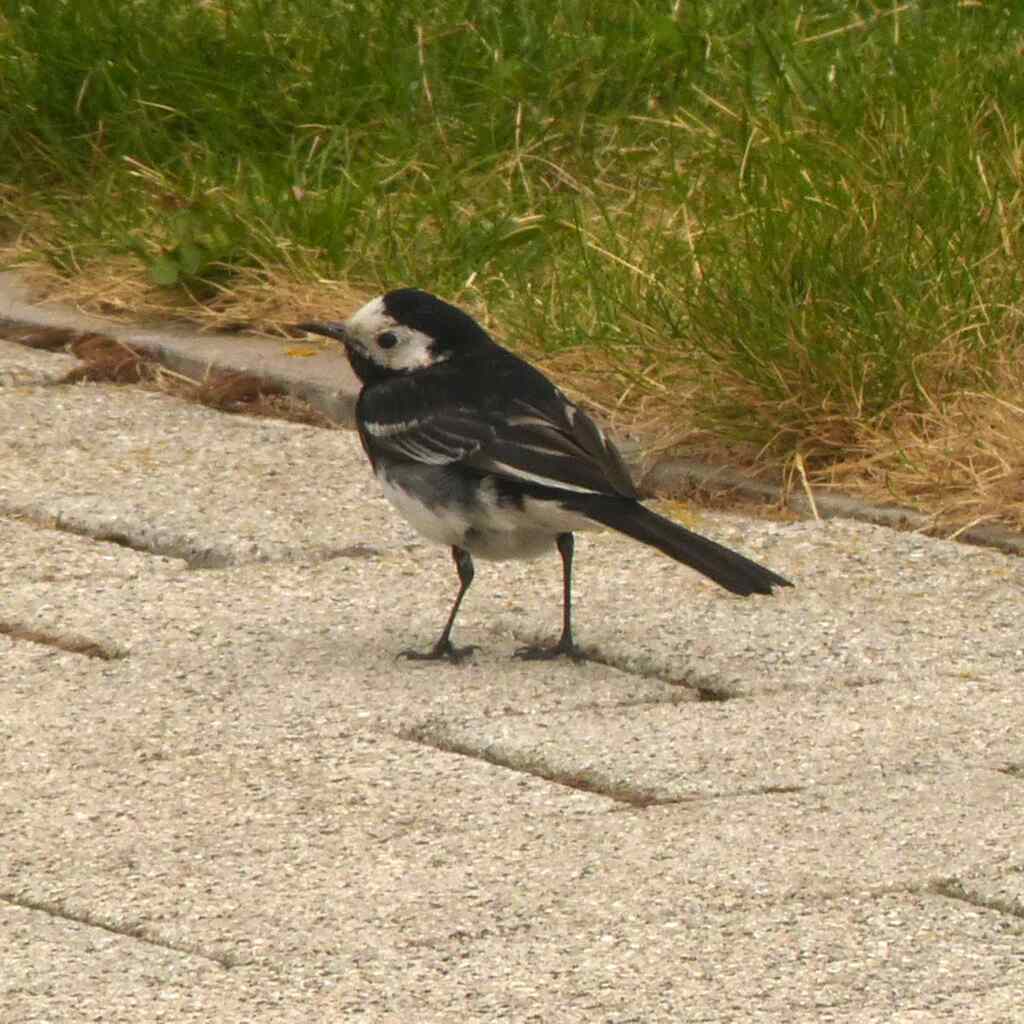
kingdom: Animalia
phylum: Chordata
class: Aves
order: Passeriformes
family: Motacillidae
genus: Motacilla
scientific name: Motacilla alba
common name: White wagtail
